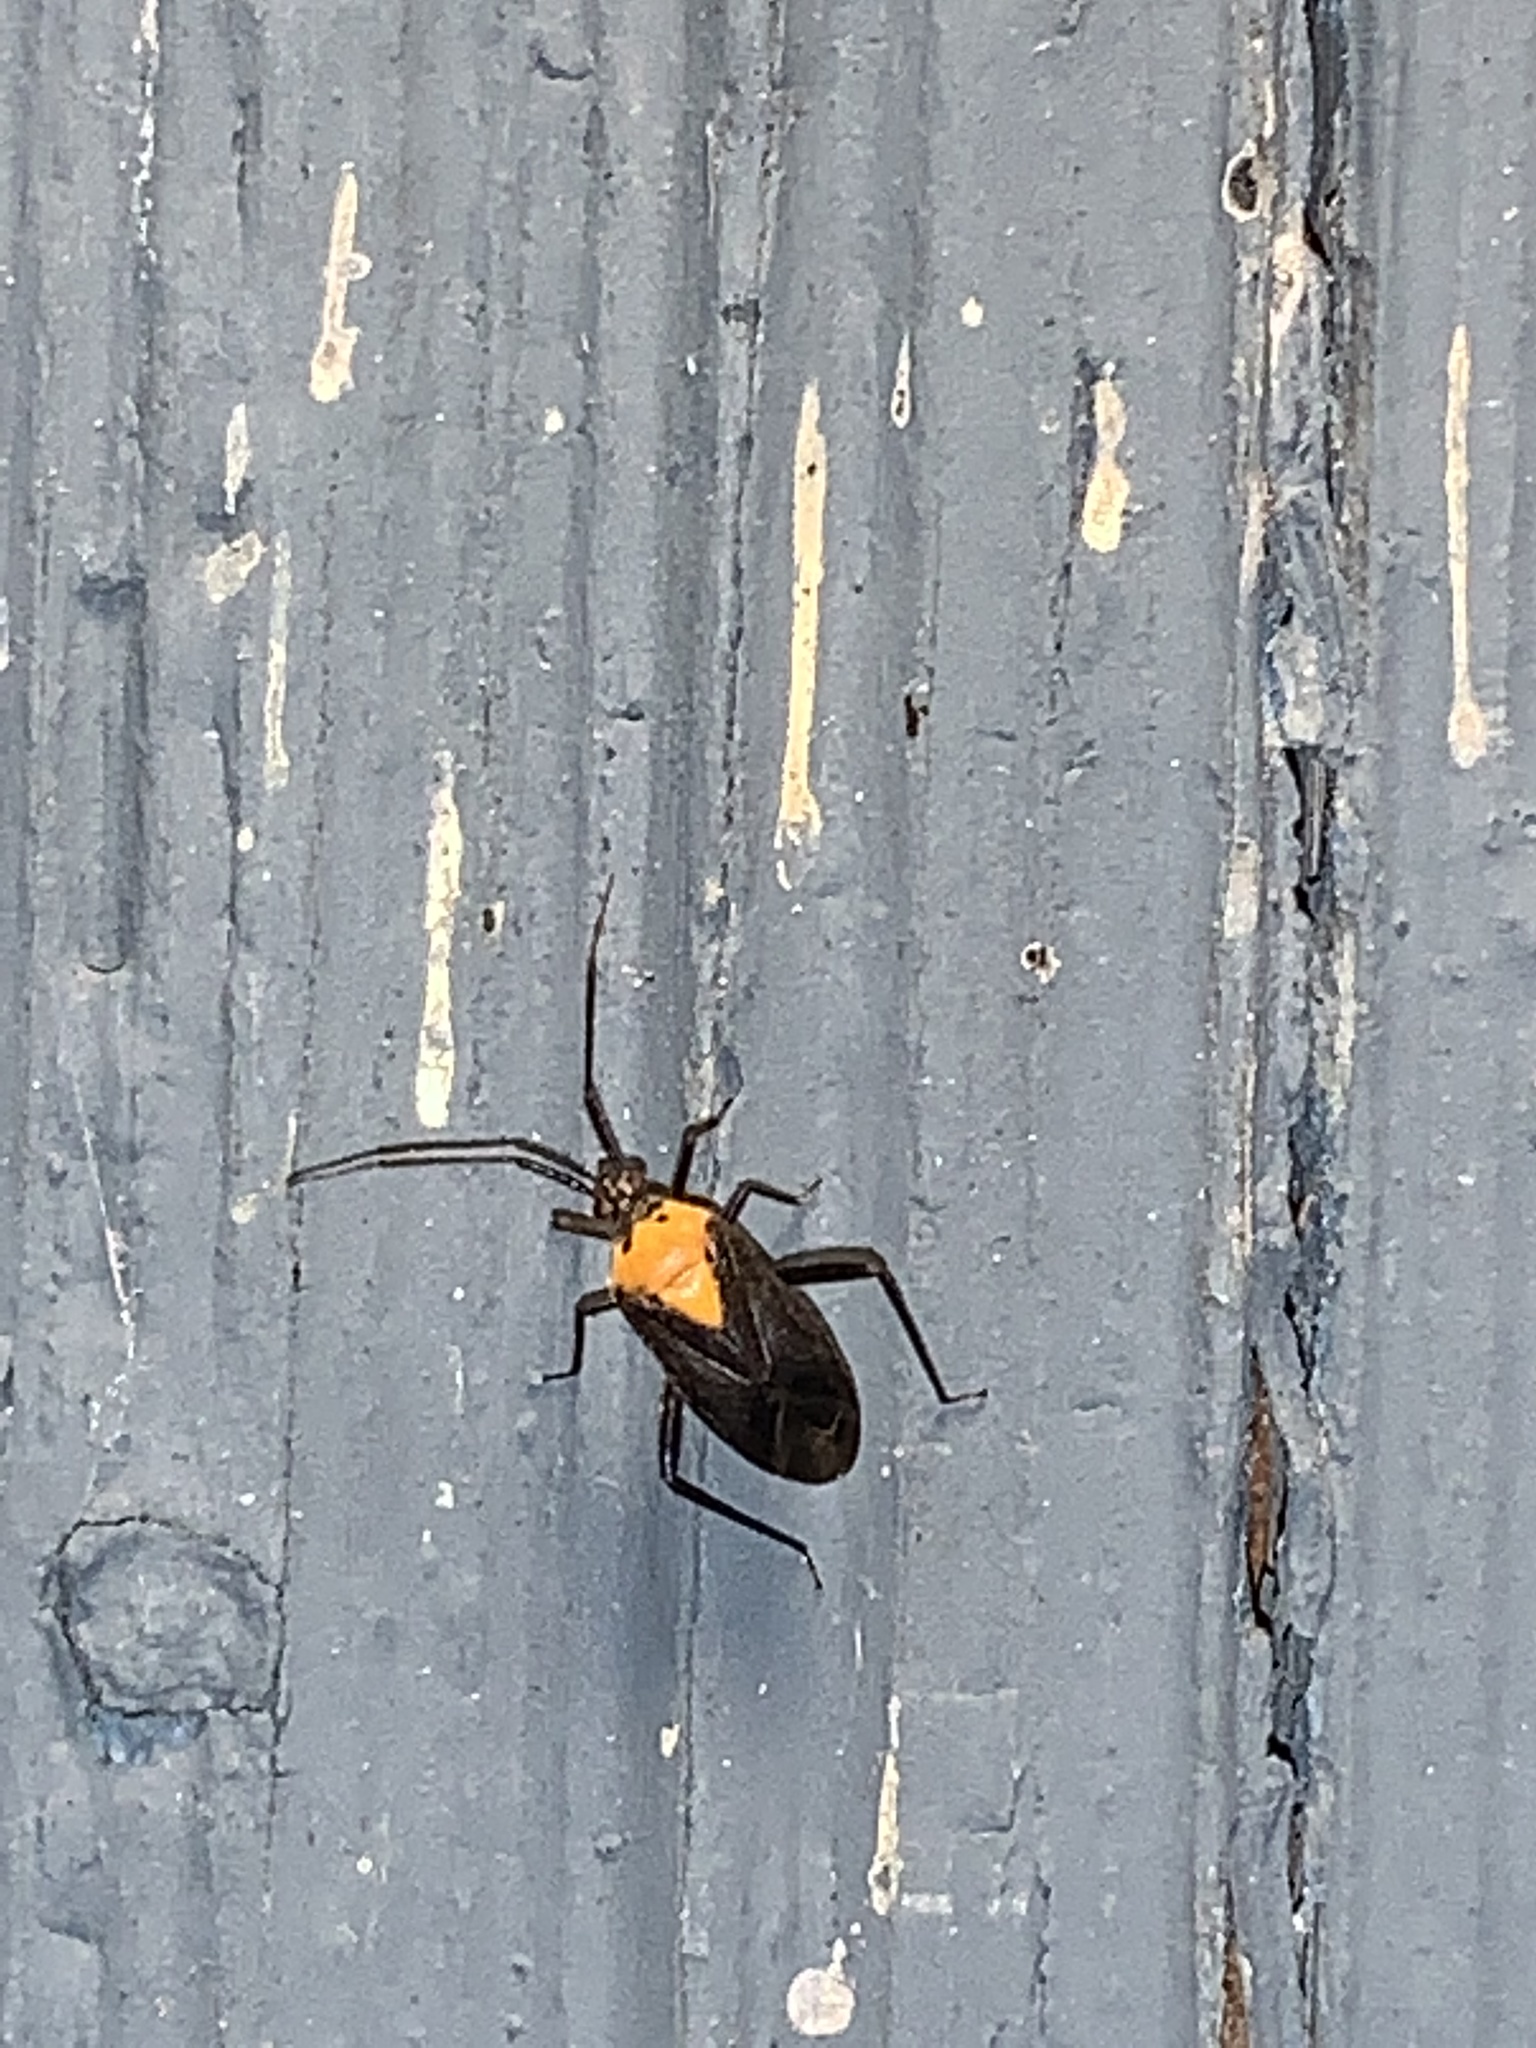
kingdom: Animalia
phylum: Arthropoda
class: Insecta
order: Hemiptera
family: Miridae
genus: Taedia
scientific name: Taedia scrupea
